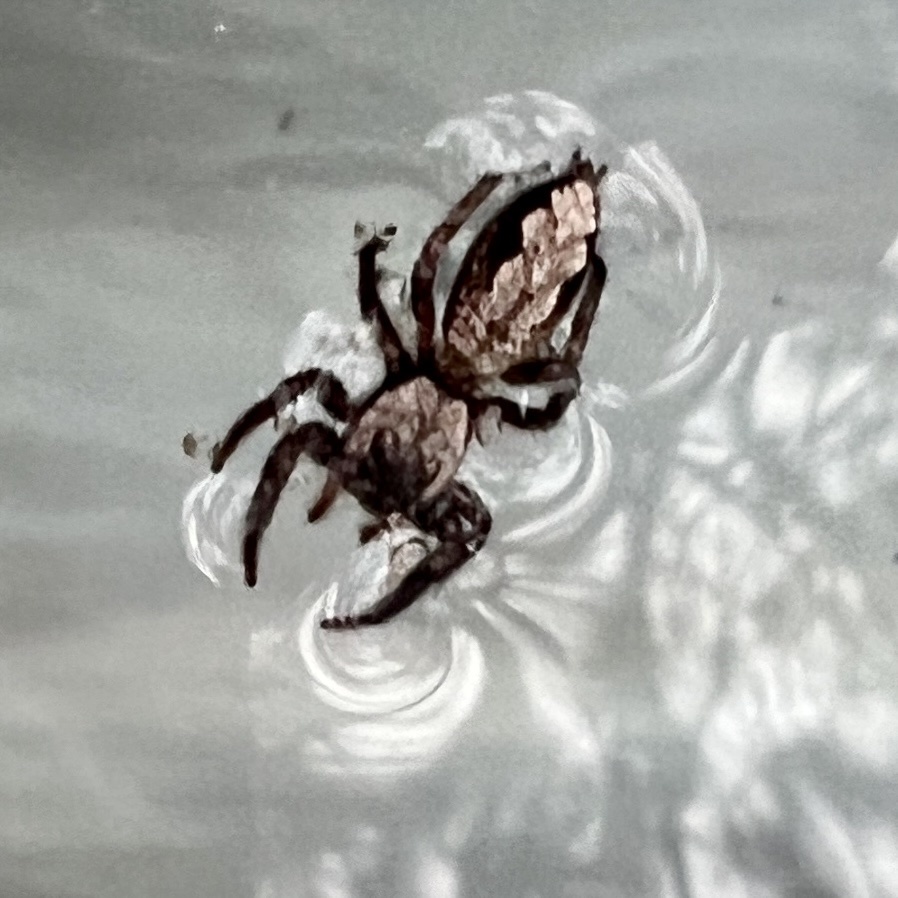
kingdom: Animalia
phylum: Arthropoda
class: Arachnida
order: Araneae
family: Salticidae
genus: Platycryptus
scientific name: Platycryptus undatus
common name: Tan jumping spider
